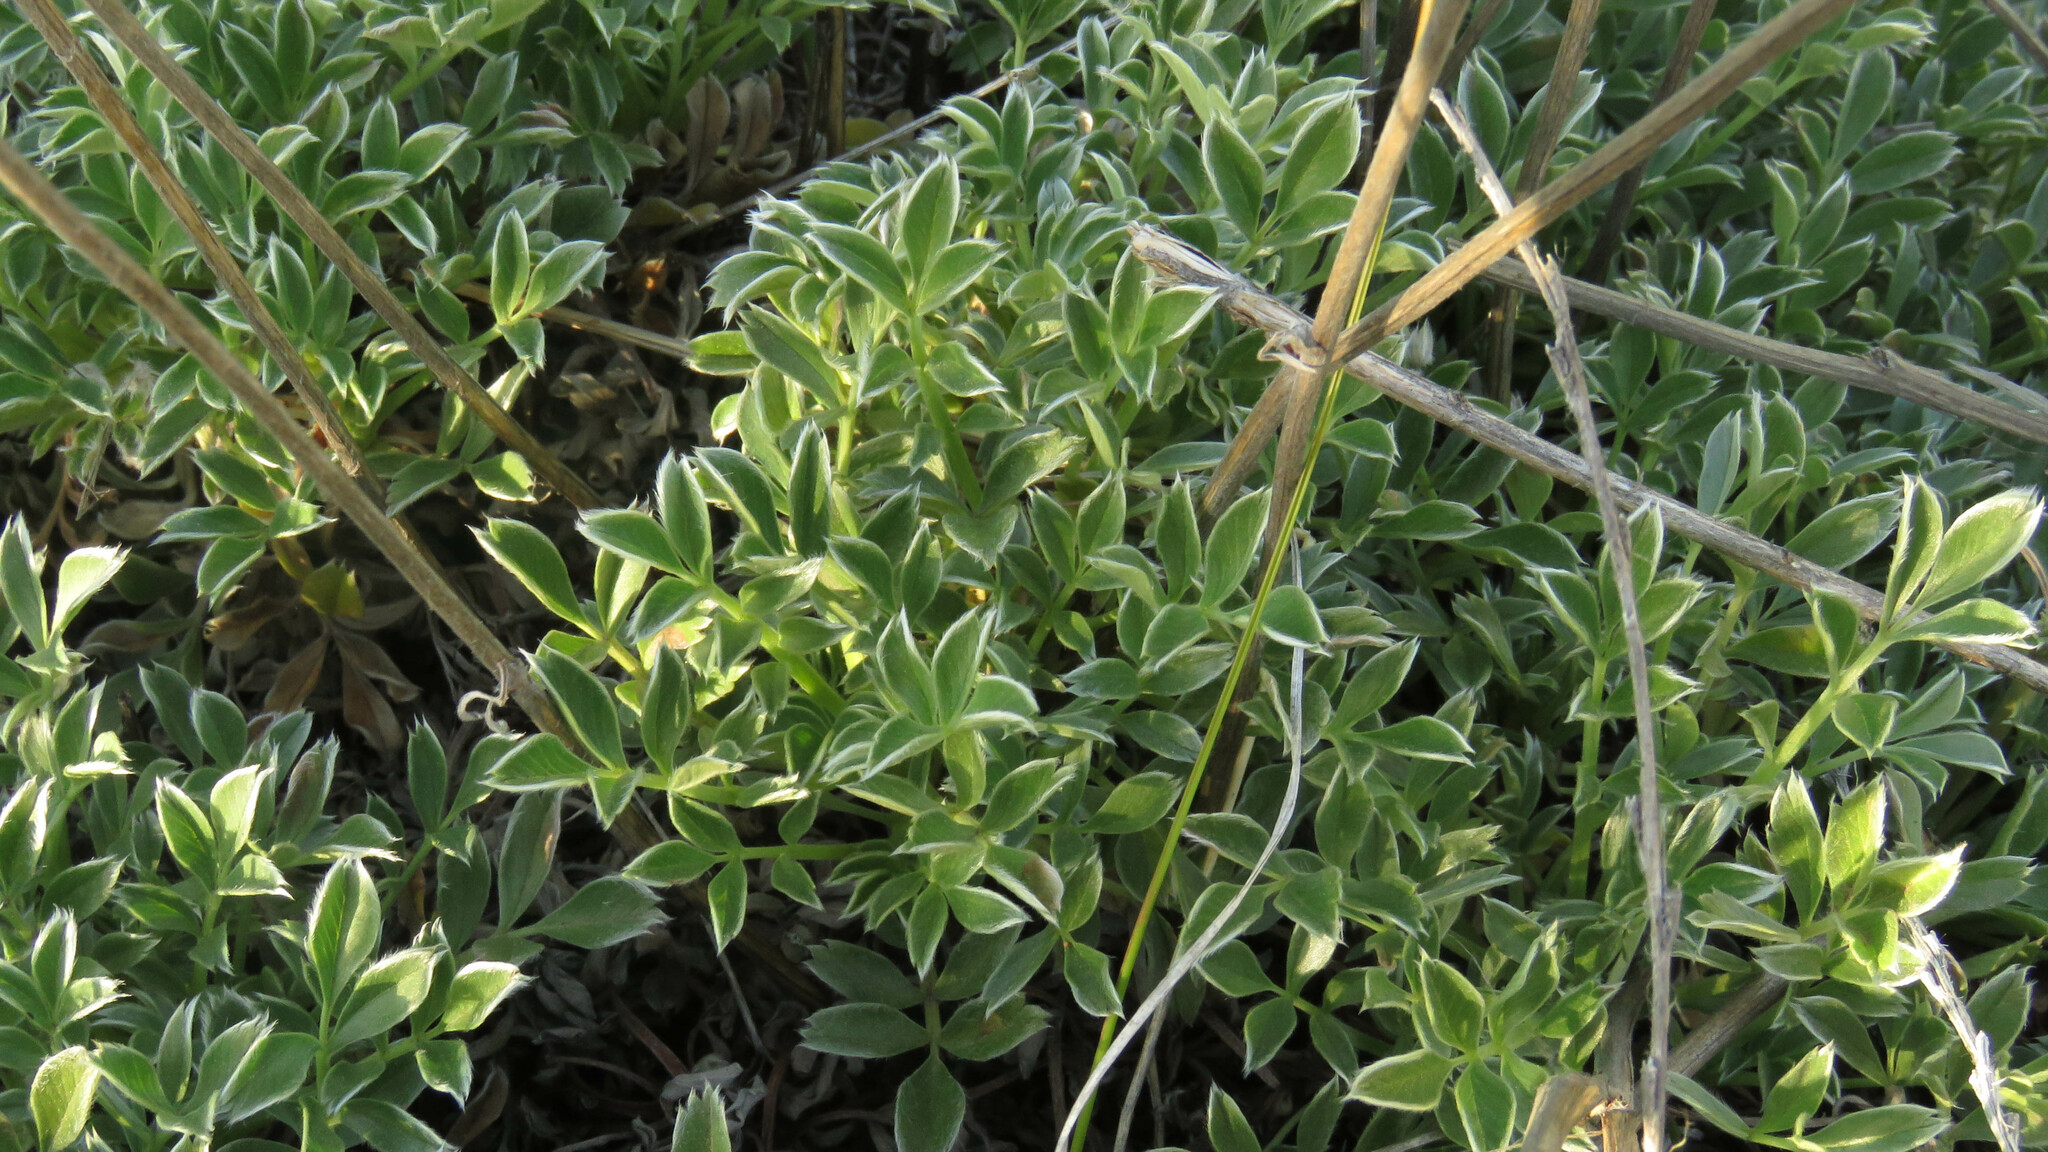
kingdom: Plantae
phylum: Tracheophyta
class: Magnoliopsida
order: Rosales
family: Rosaceae
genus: Acaena
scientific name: Acaena splendens
